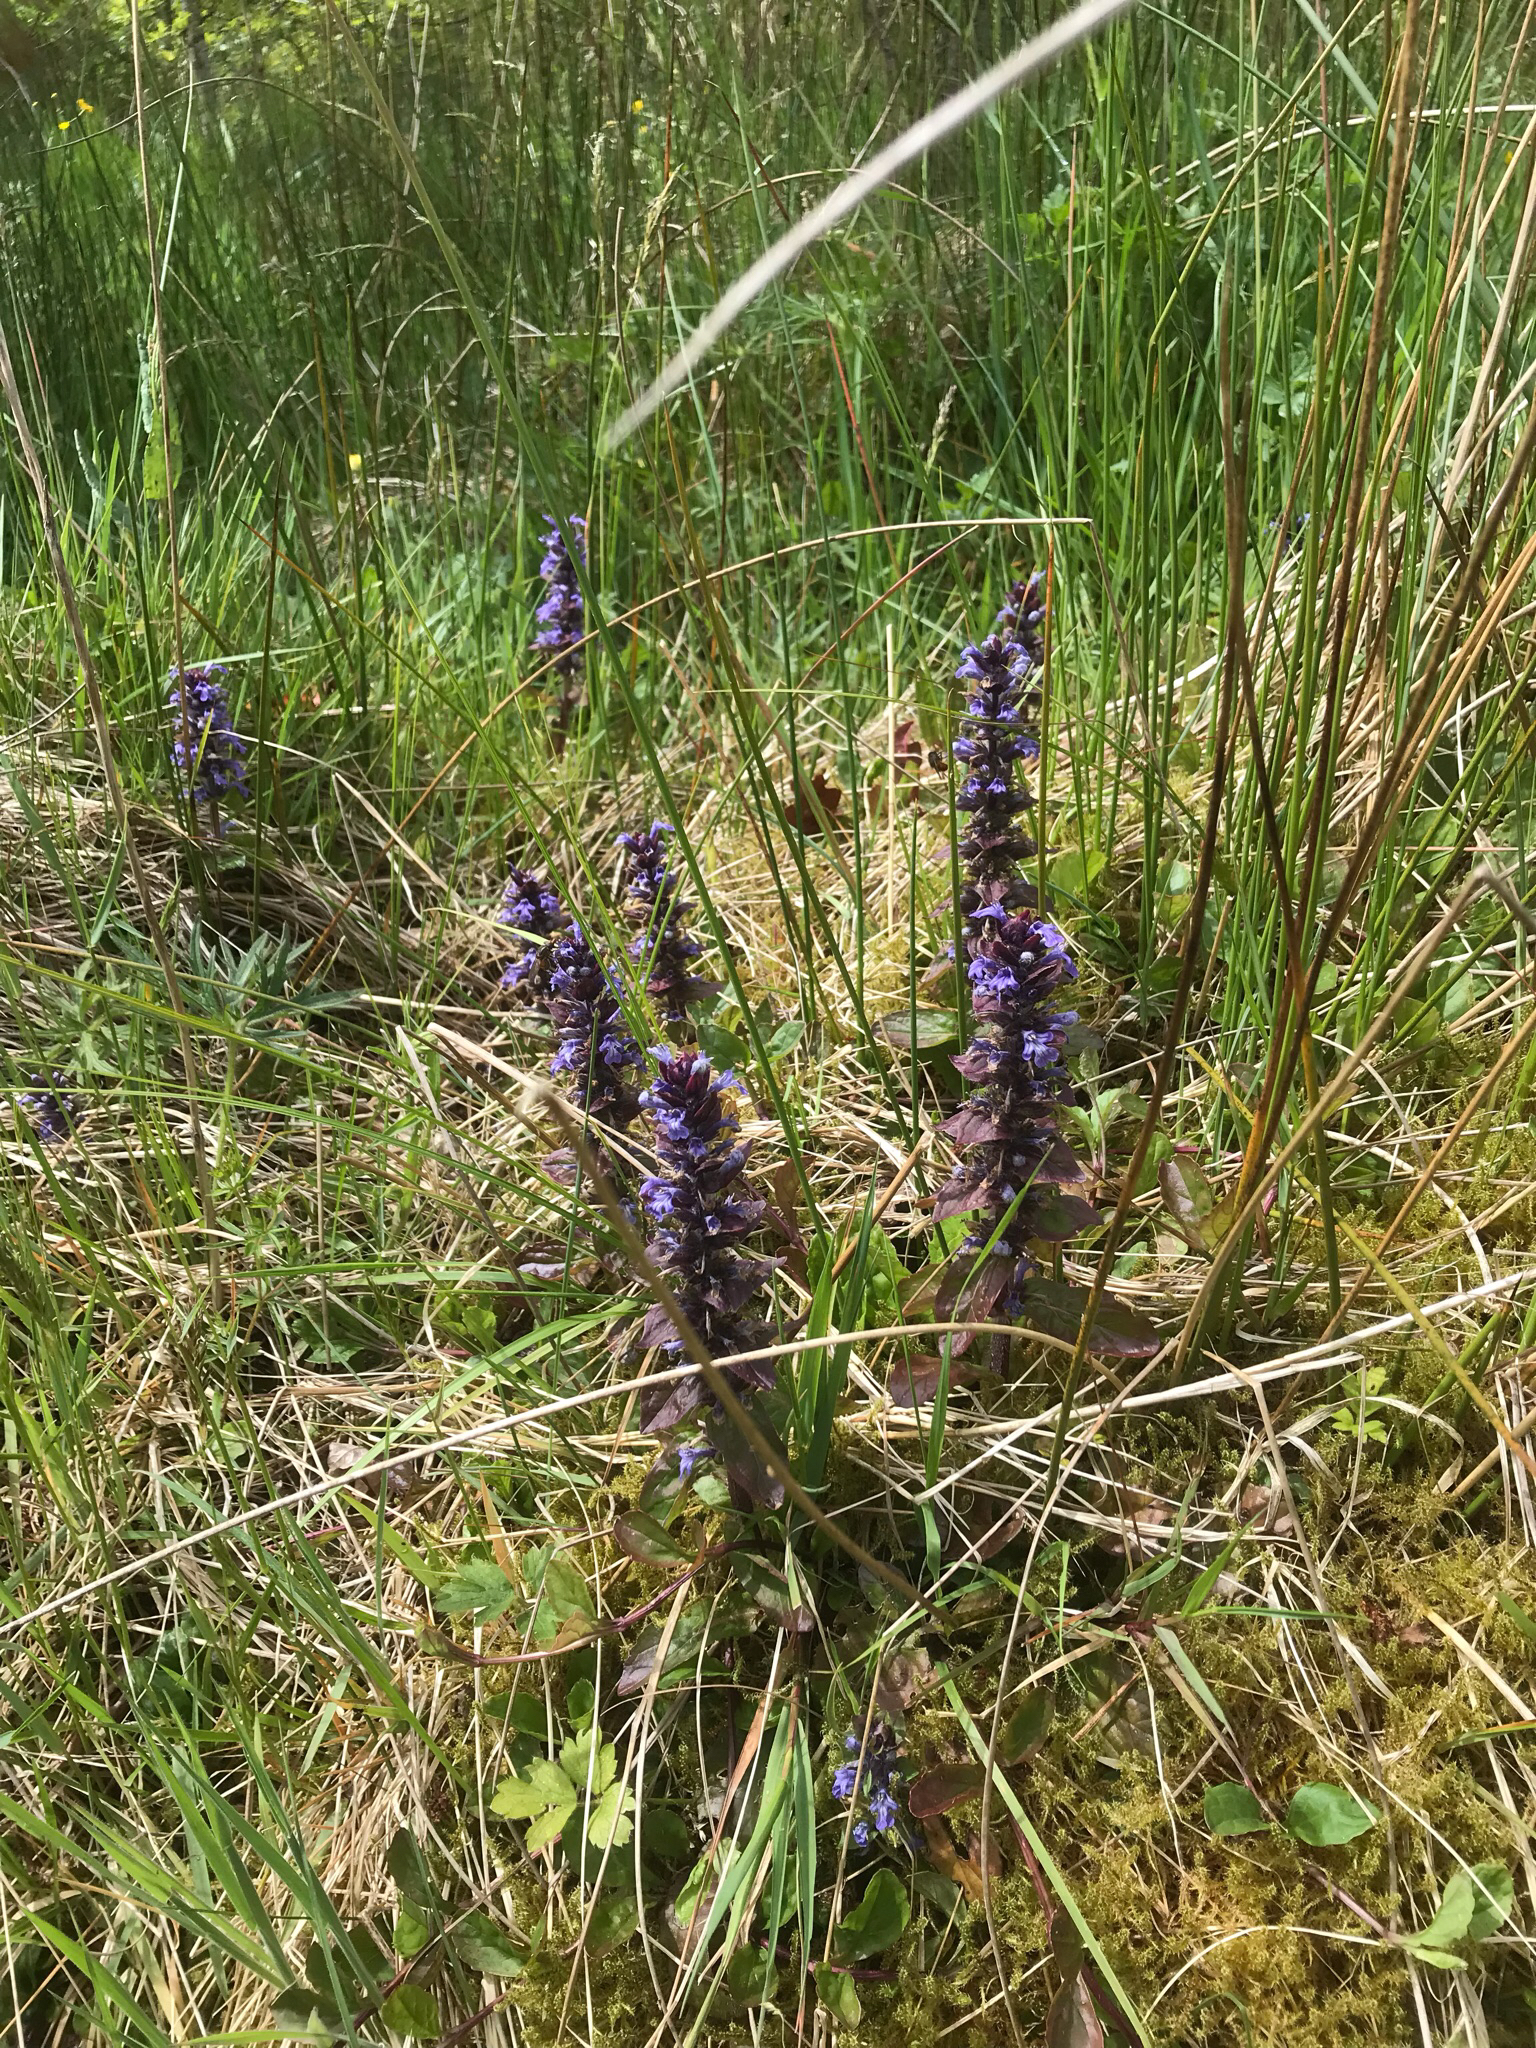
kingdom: Plantae
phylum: Tracheophyta
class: Magnoliopsida
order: Lamiales
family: Lamiaceae
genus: Ajuga
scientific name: Ajuga reptans
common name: Bugle
